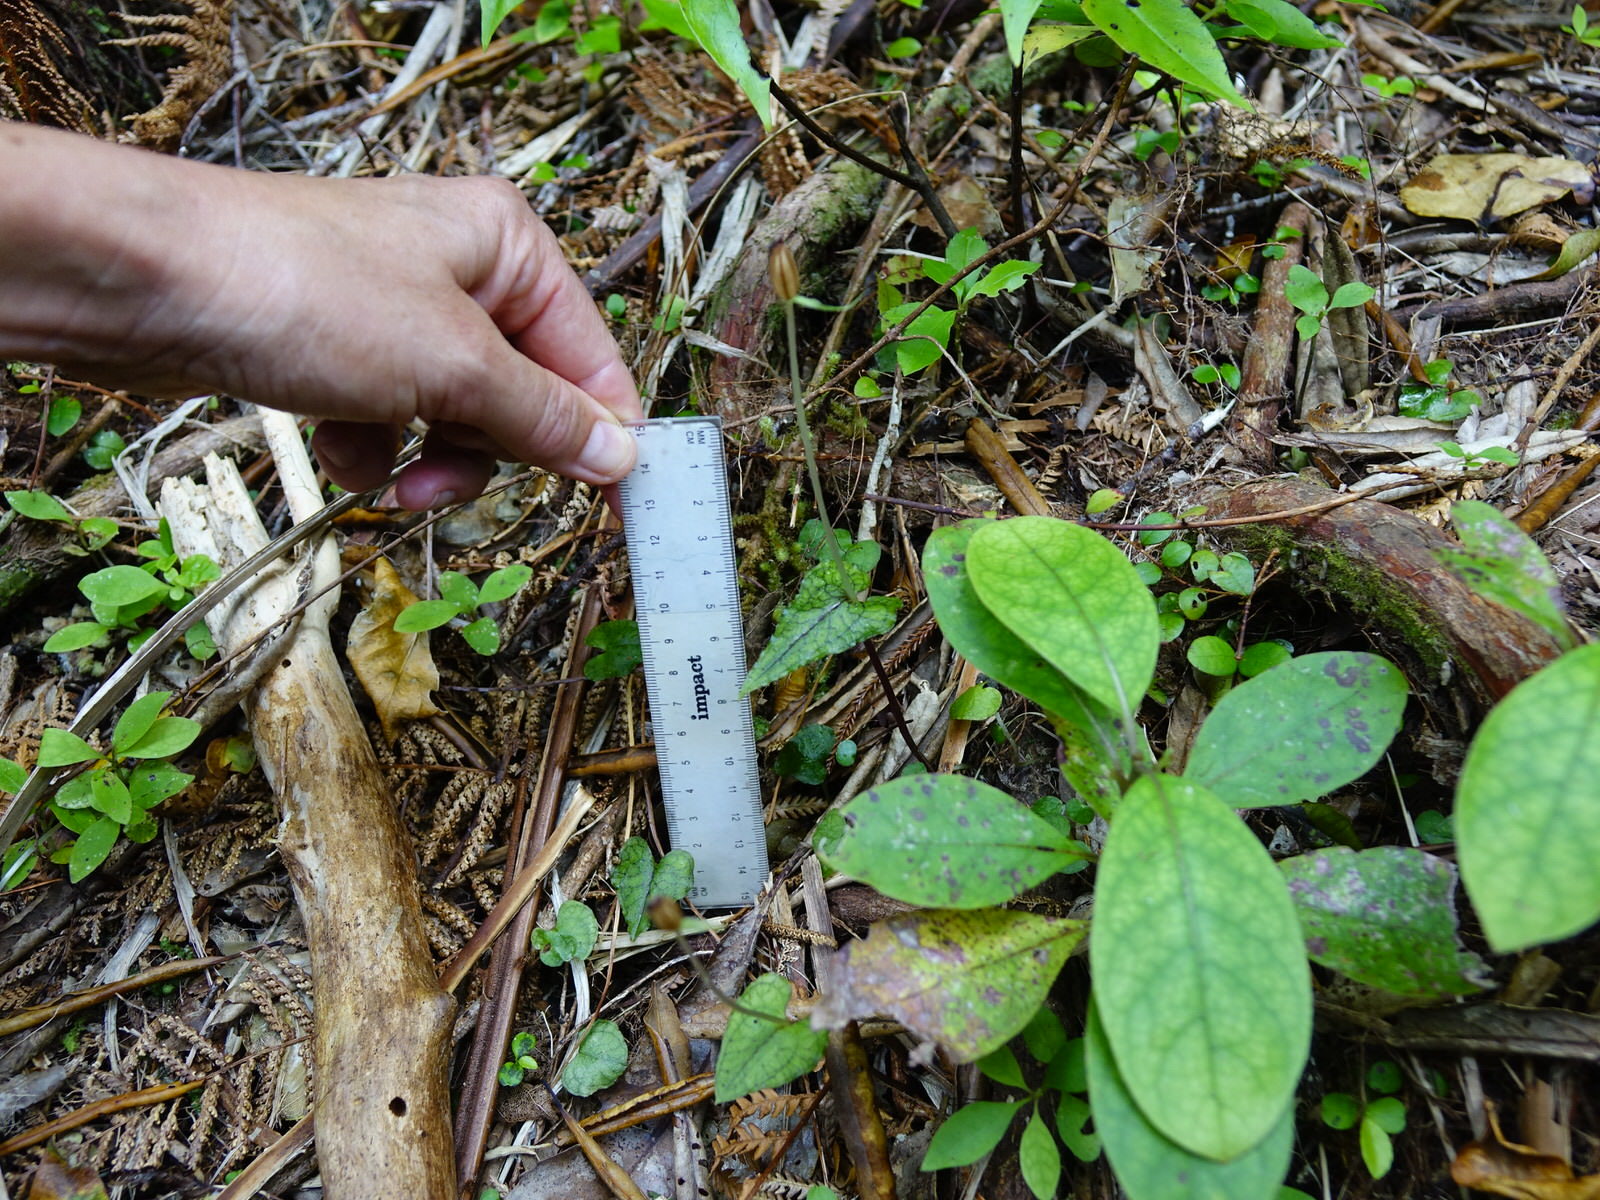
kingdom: Plantae
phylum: Tracheophyta
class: Liliopsida
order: Asparagales
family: Orchidaceae
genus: Acianthus
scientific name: Acianthus sinclairii
